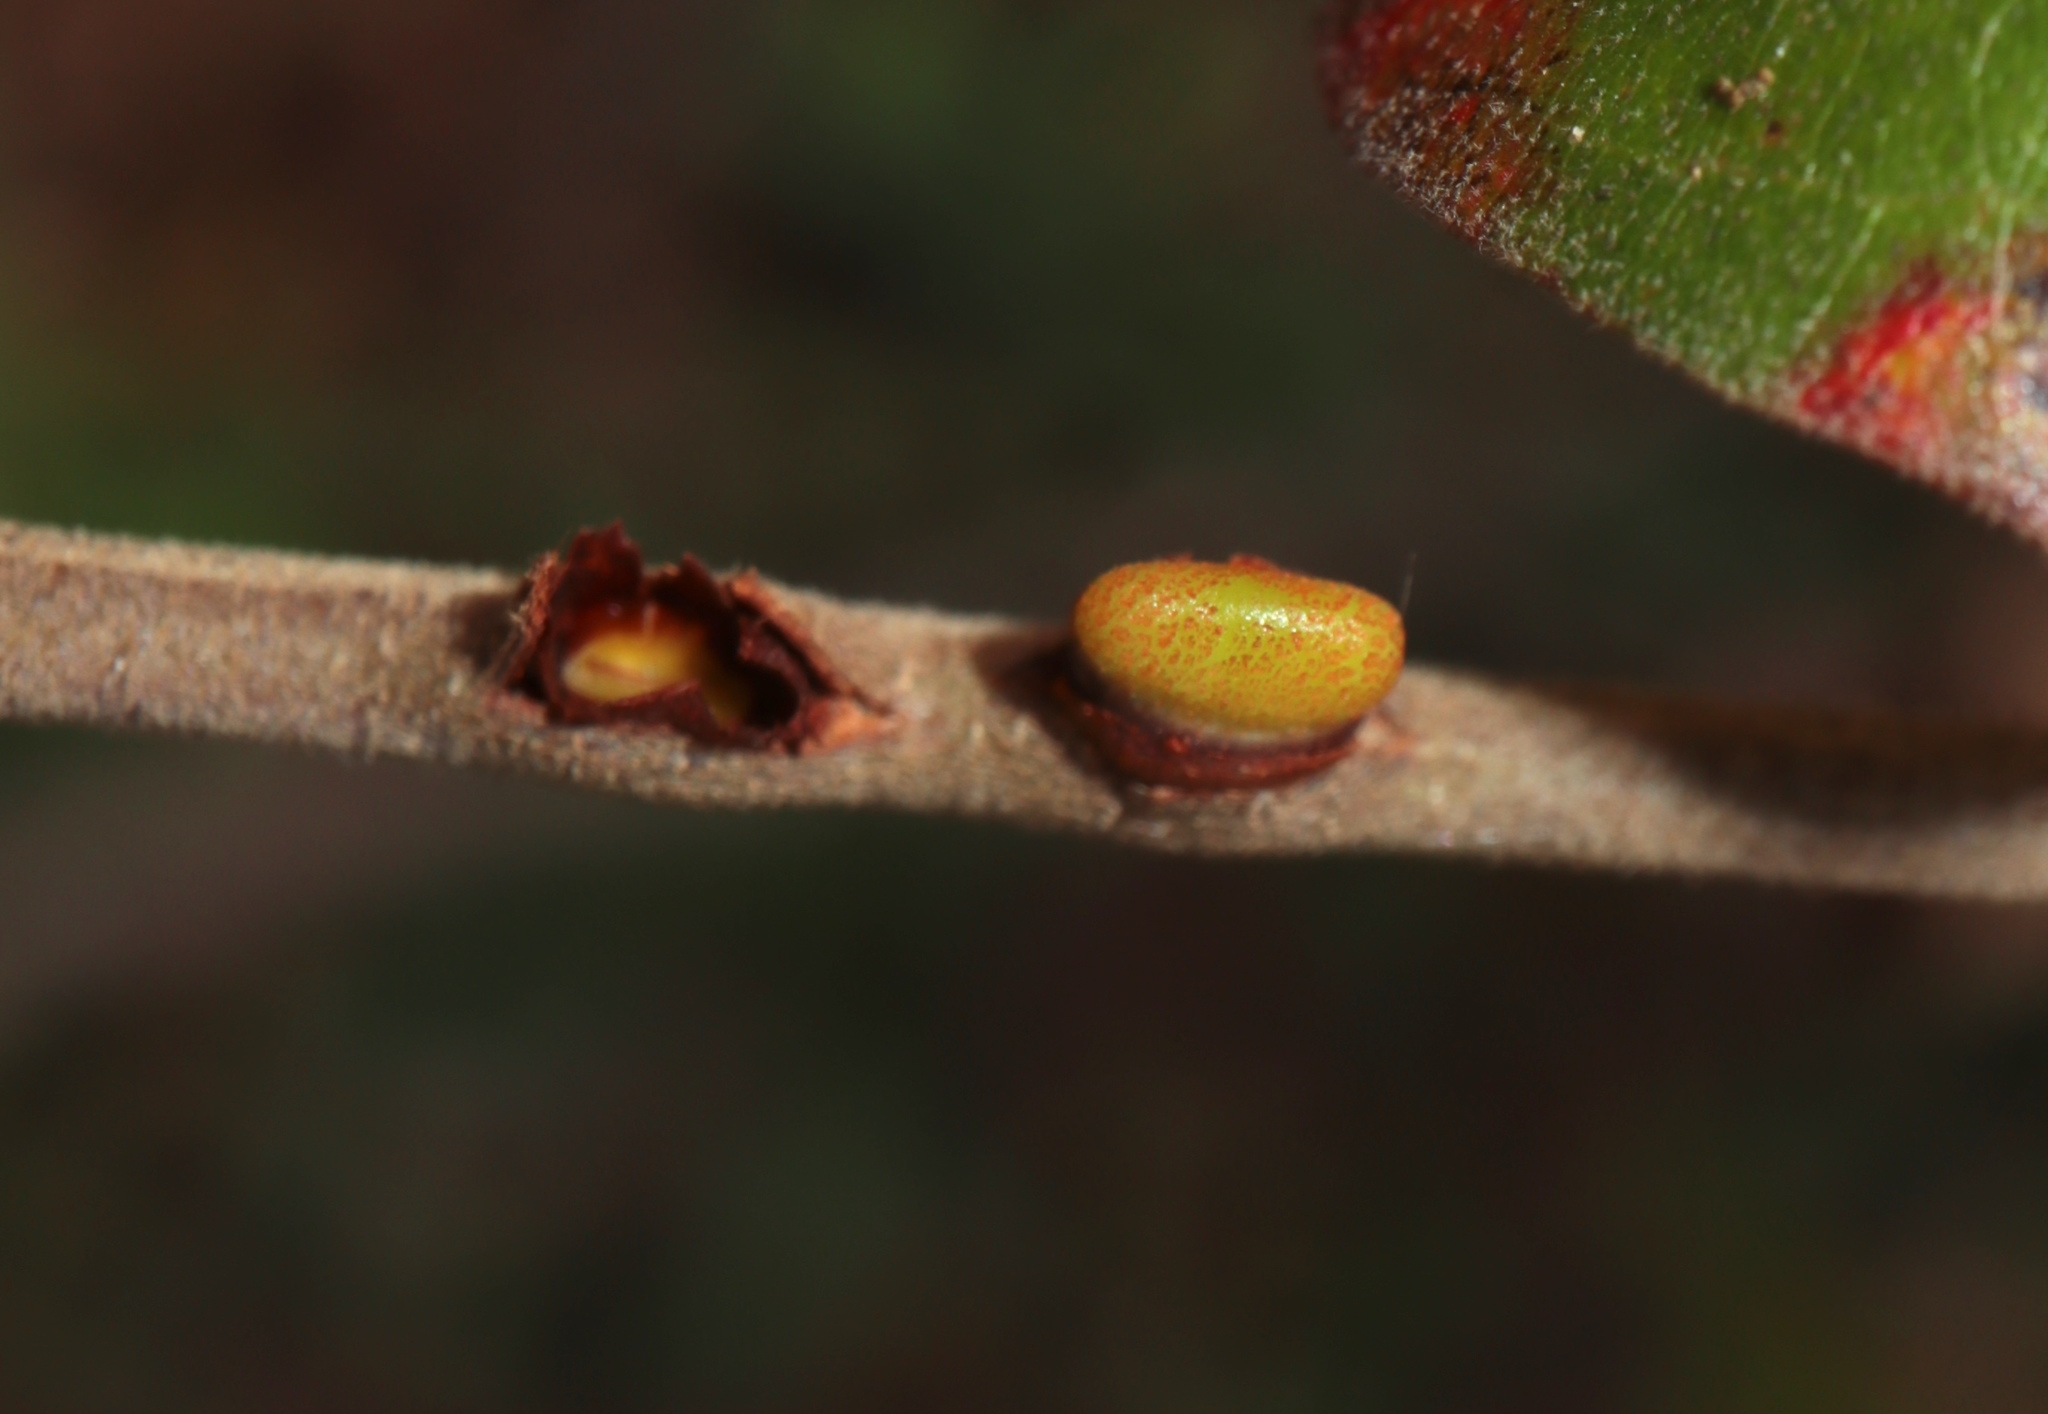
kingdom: Animalia
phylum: Arthropoda
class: Insecta
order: Hymenoptera
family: Cynipidae
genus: Callirhytis
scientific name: Callirhytis
